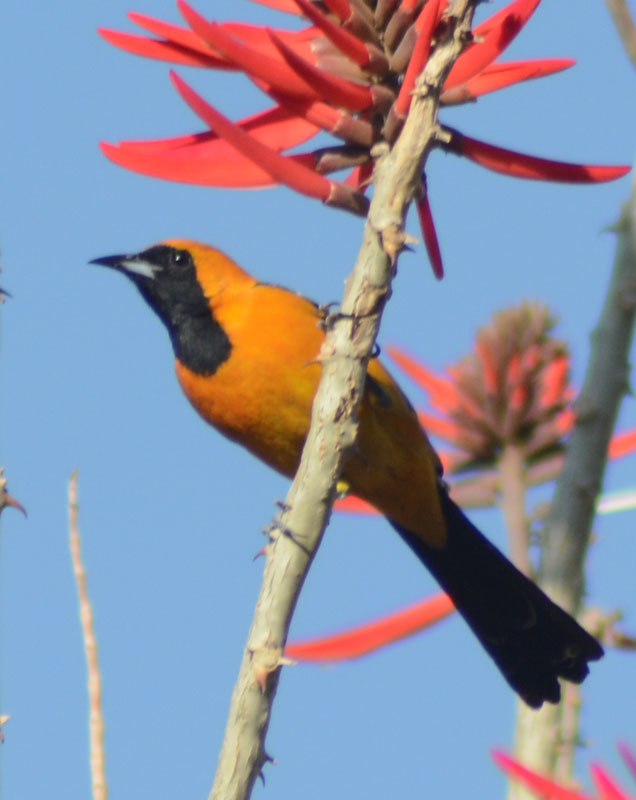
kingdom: Animalia
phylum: Chordata
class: Aves
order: Passeriformes
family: Icteridae
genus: Icterus
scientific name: Icterus cucullatus
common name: Hooded oriole
